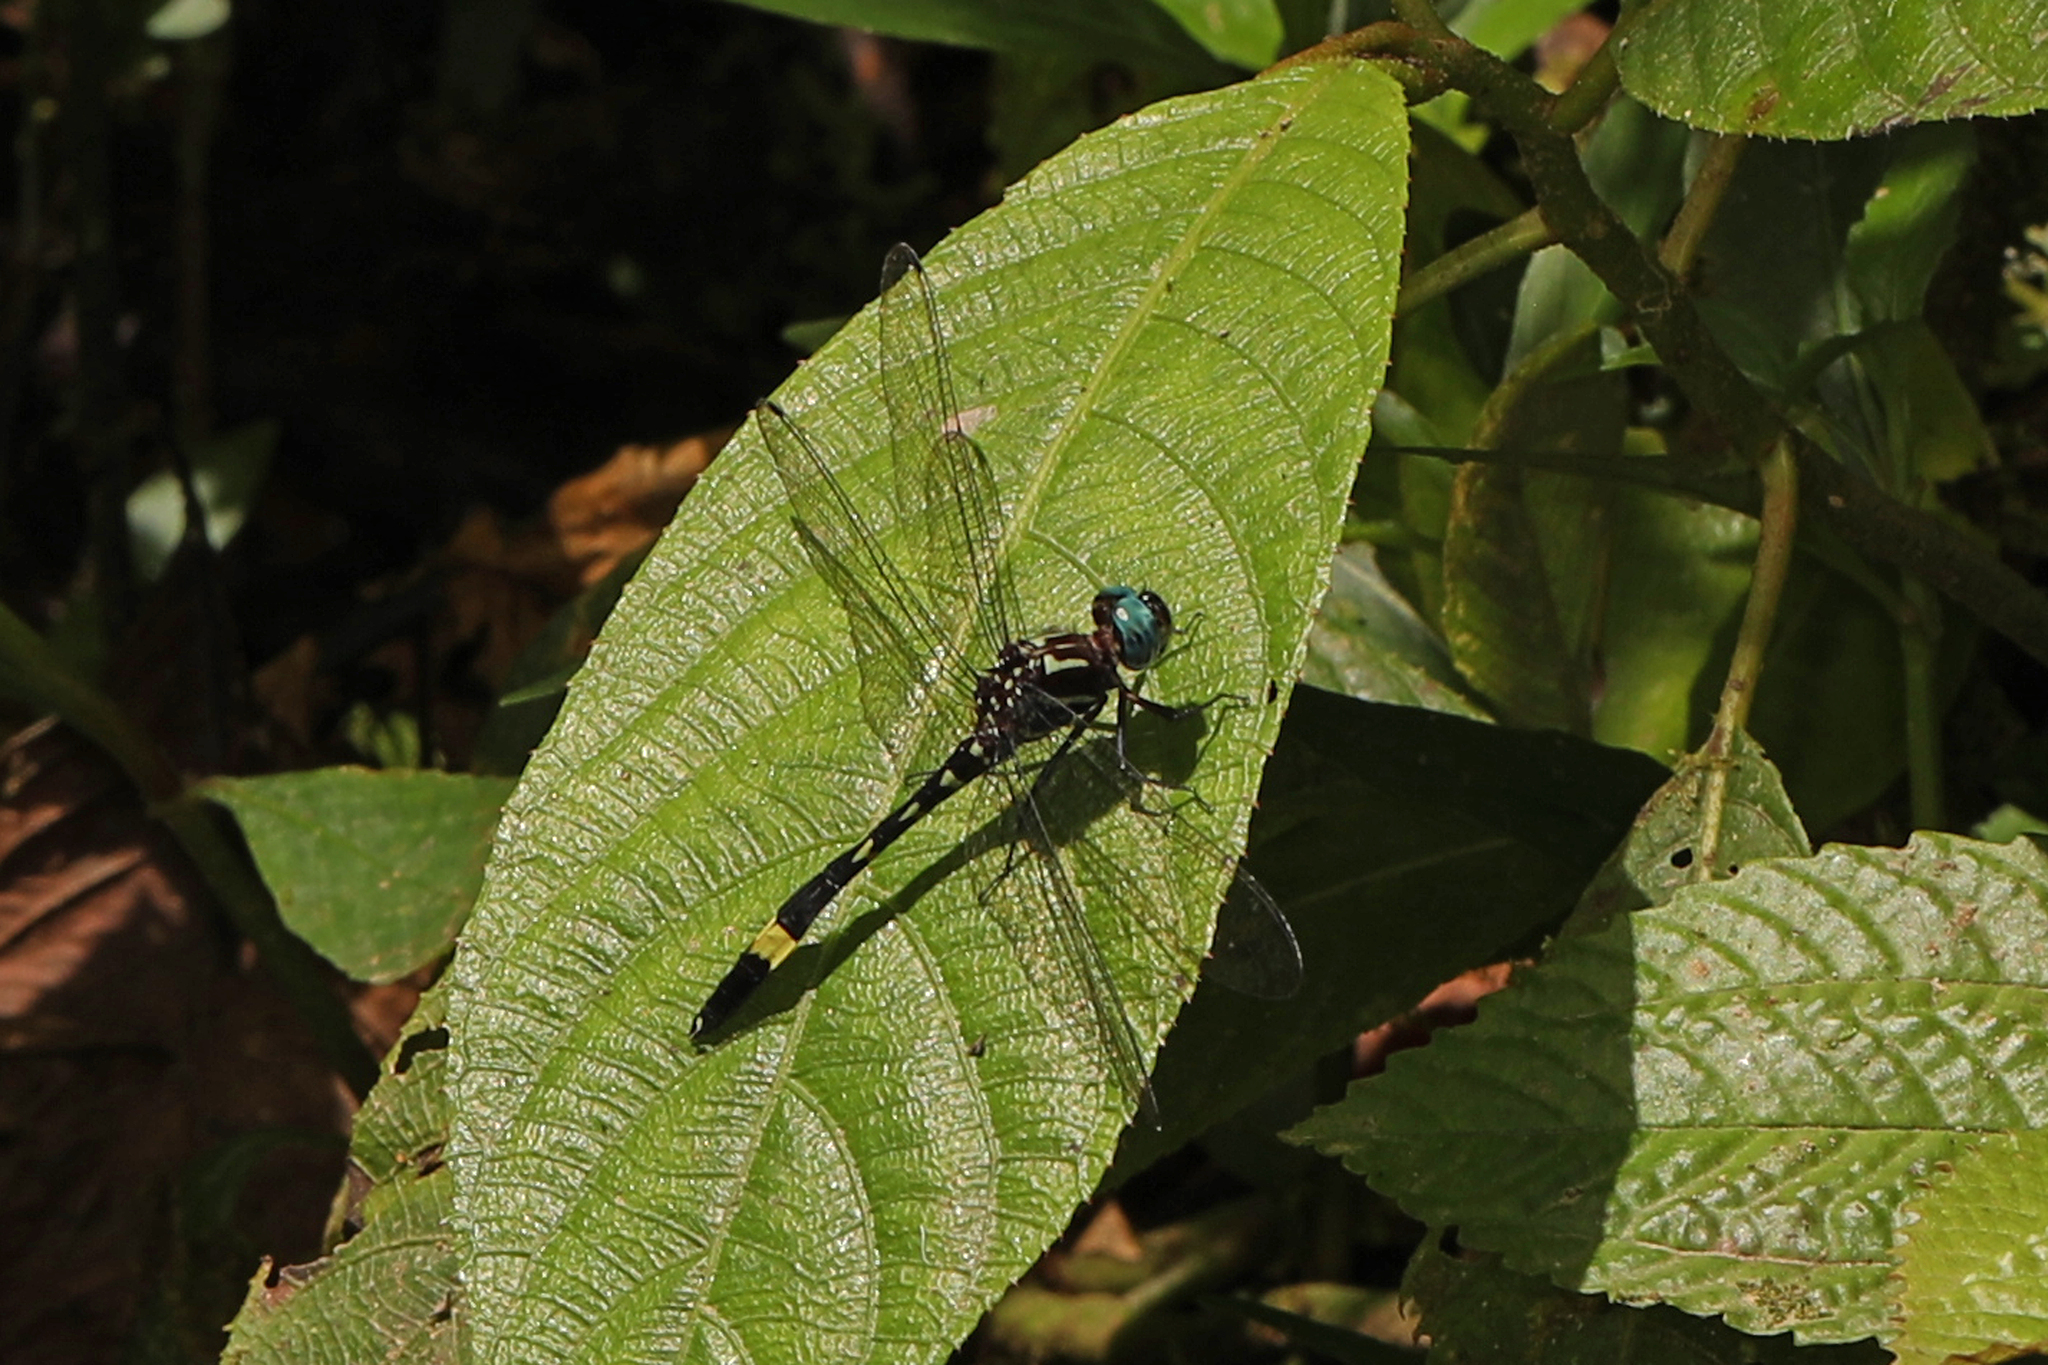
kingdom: Animalia
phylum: Arthropoda
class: Insecta
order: Odonata
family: Libellulidae
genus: Brechmorhoga
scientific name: Brechmorhoga rapax
